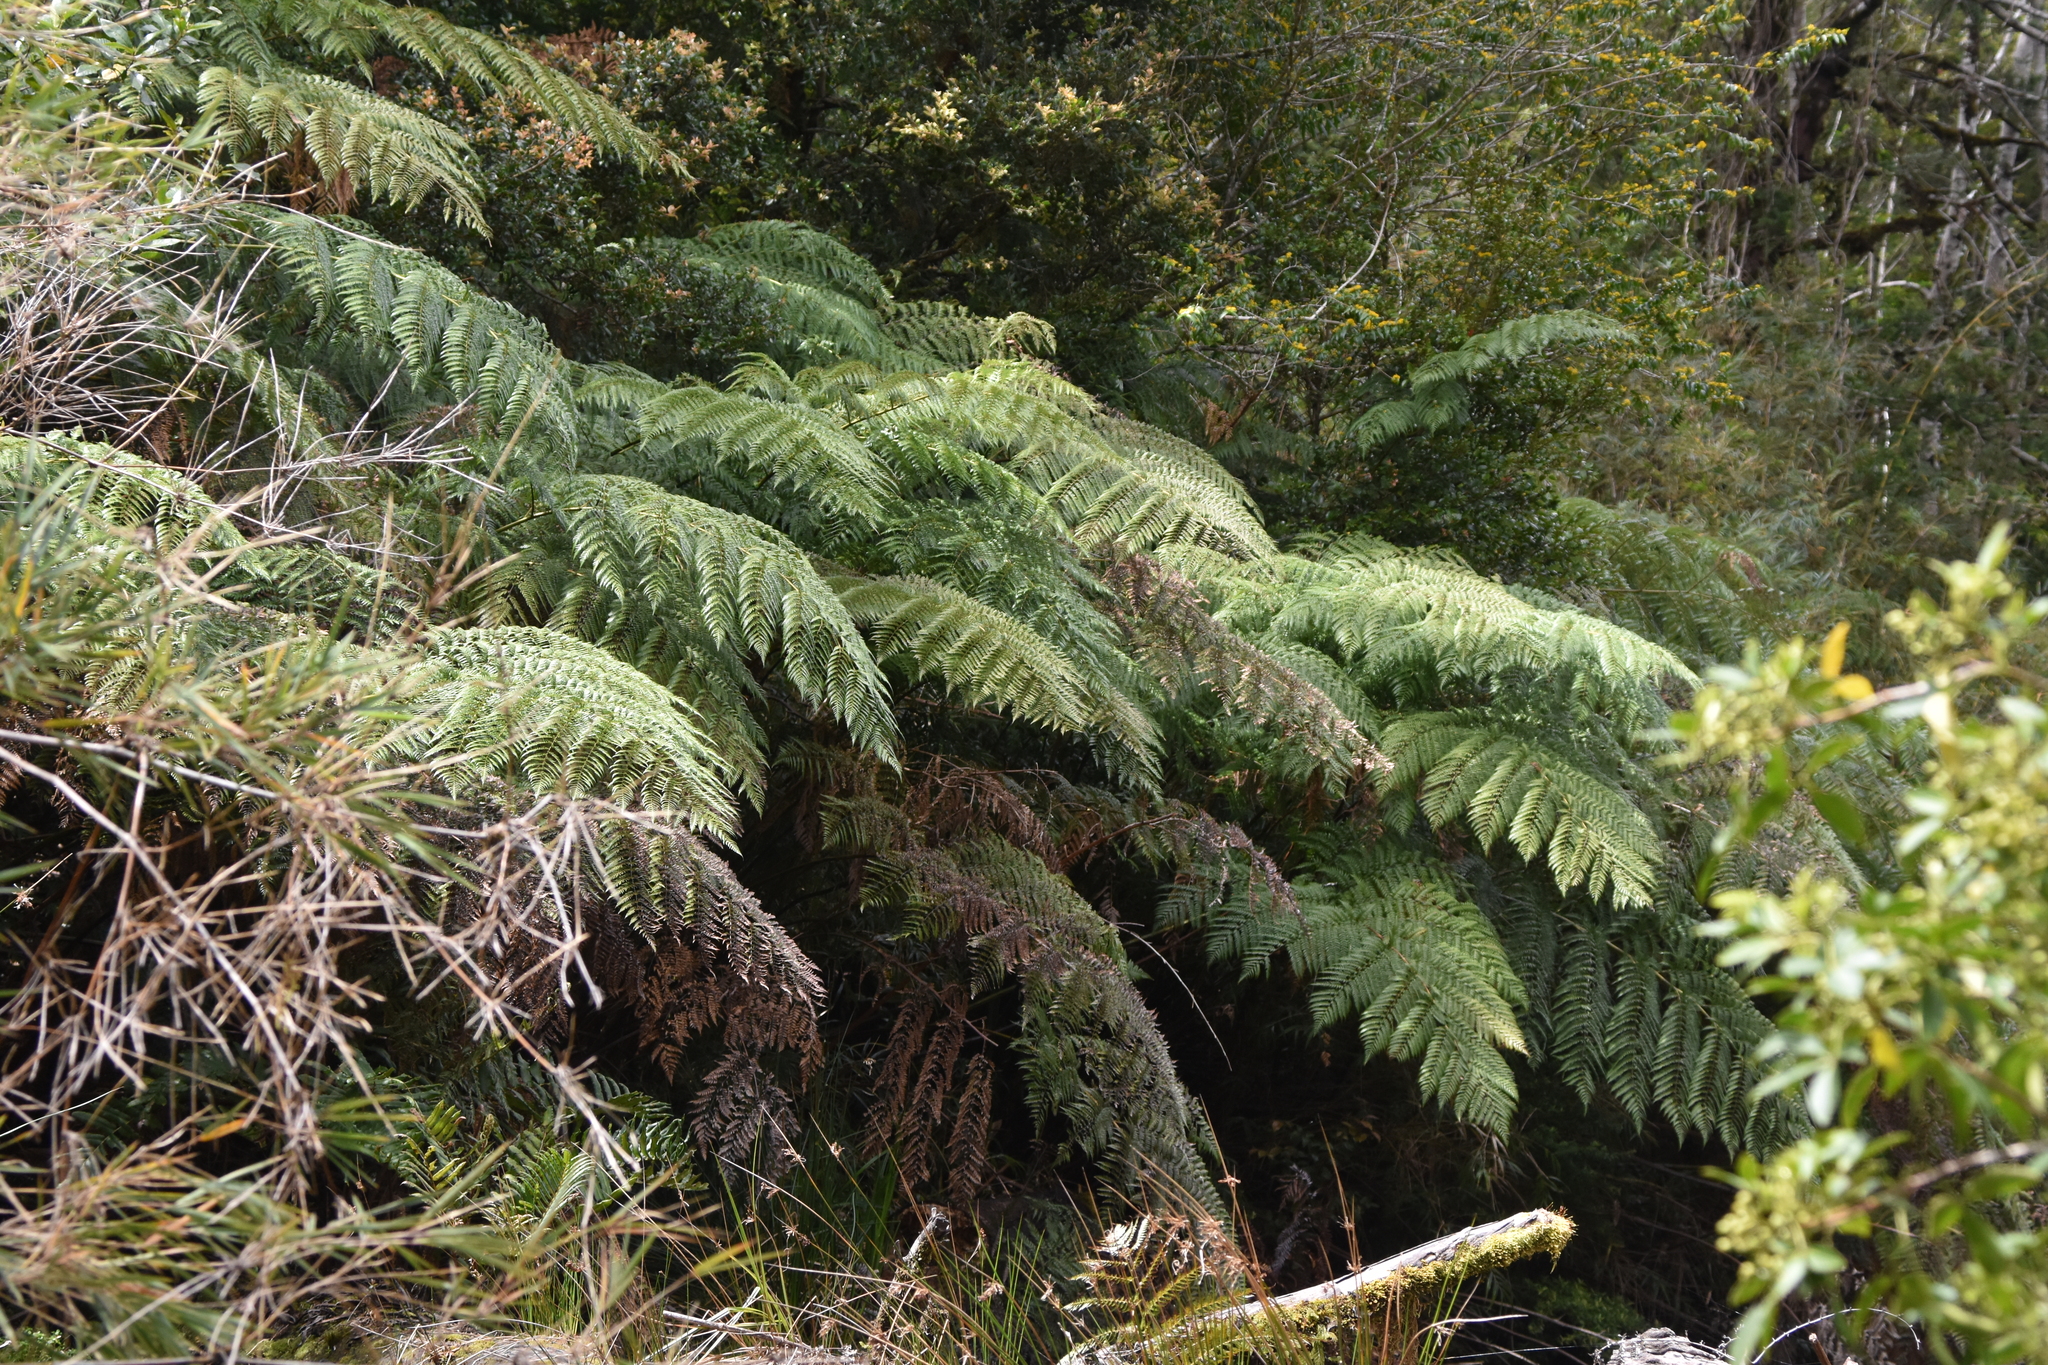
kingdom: Plantae
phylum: Tracheophyta
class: Polypodiopsida
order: Cyatheales
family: Dicksoniaceae
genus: Lophosoria
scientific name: Lophosoria quadripinnata
